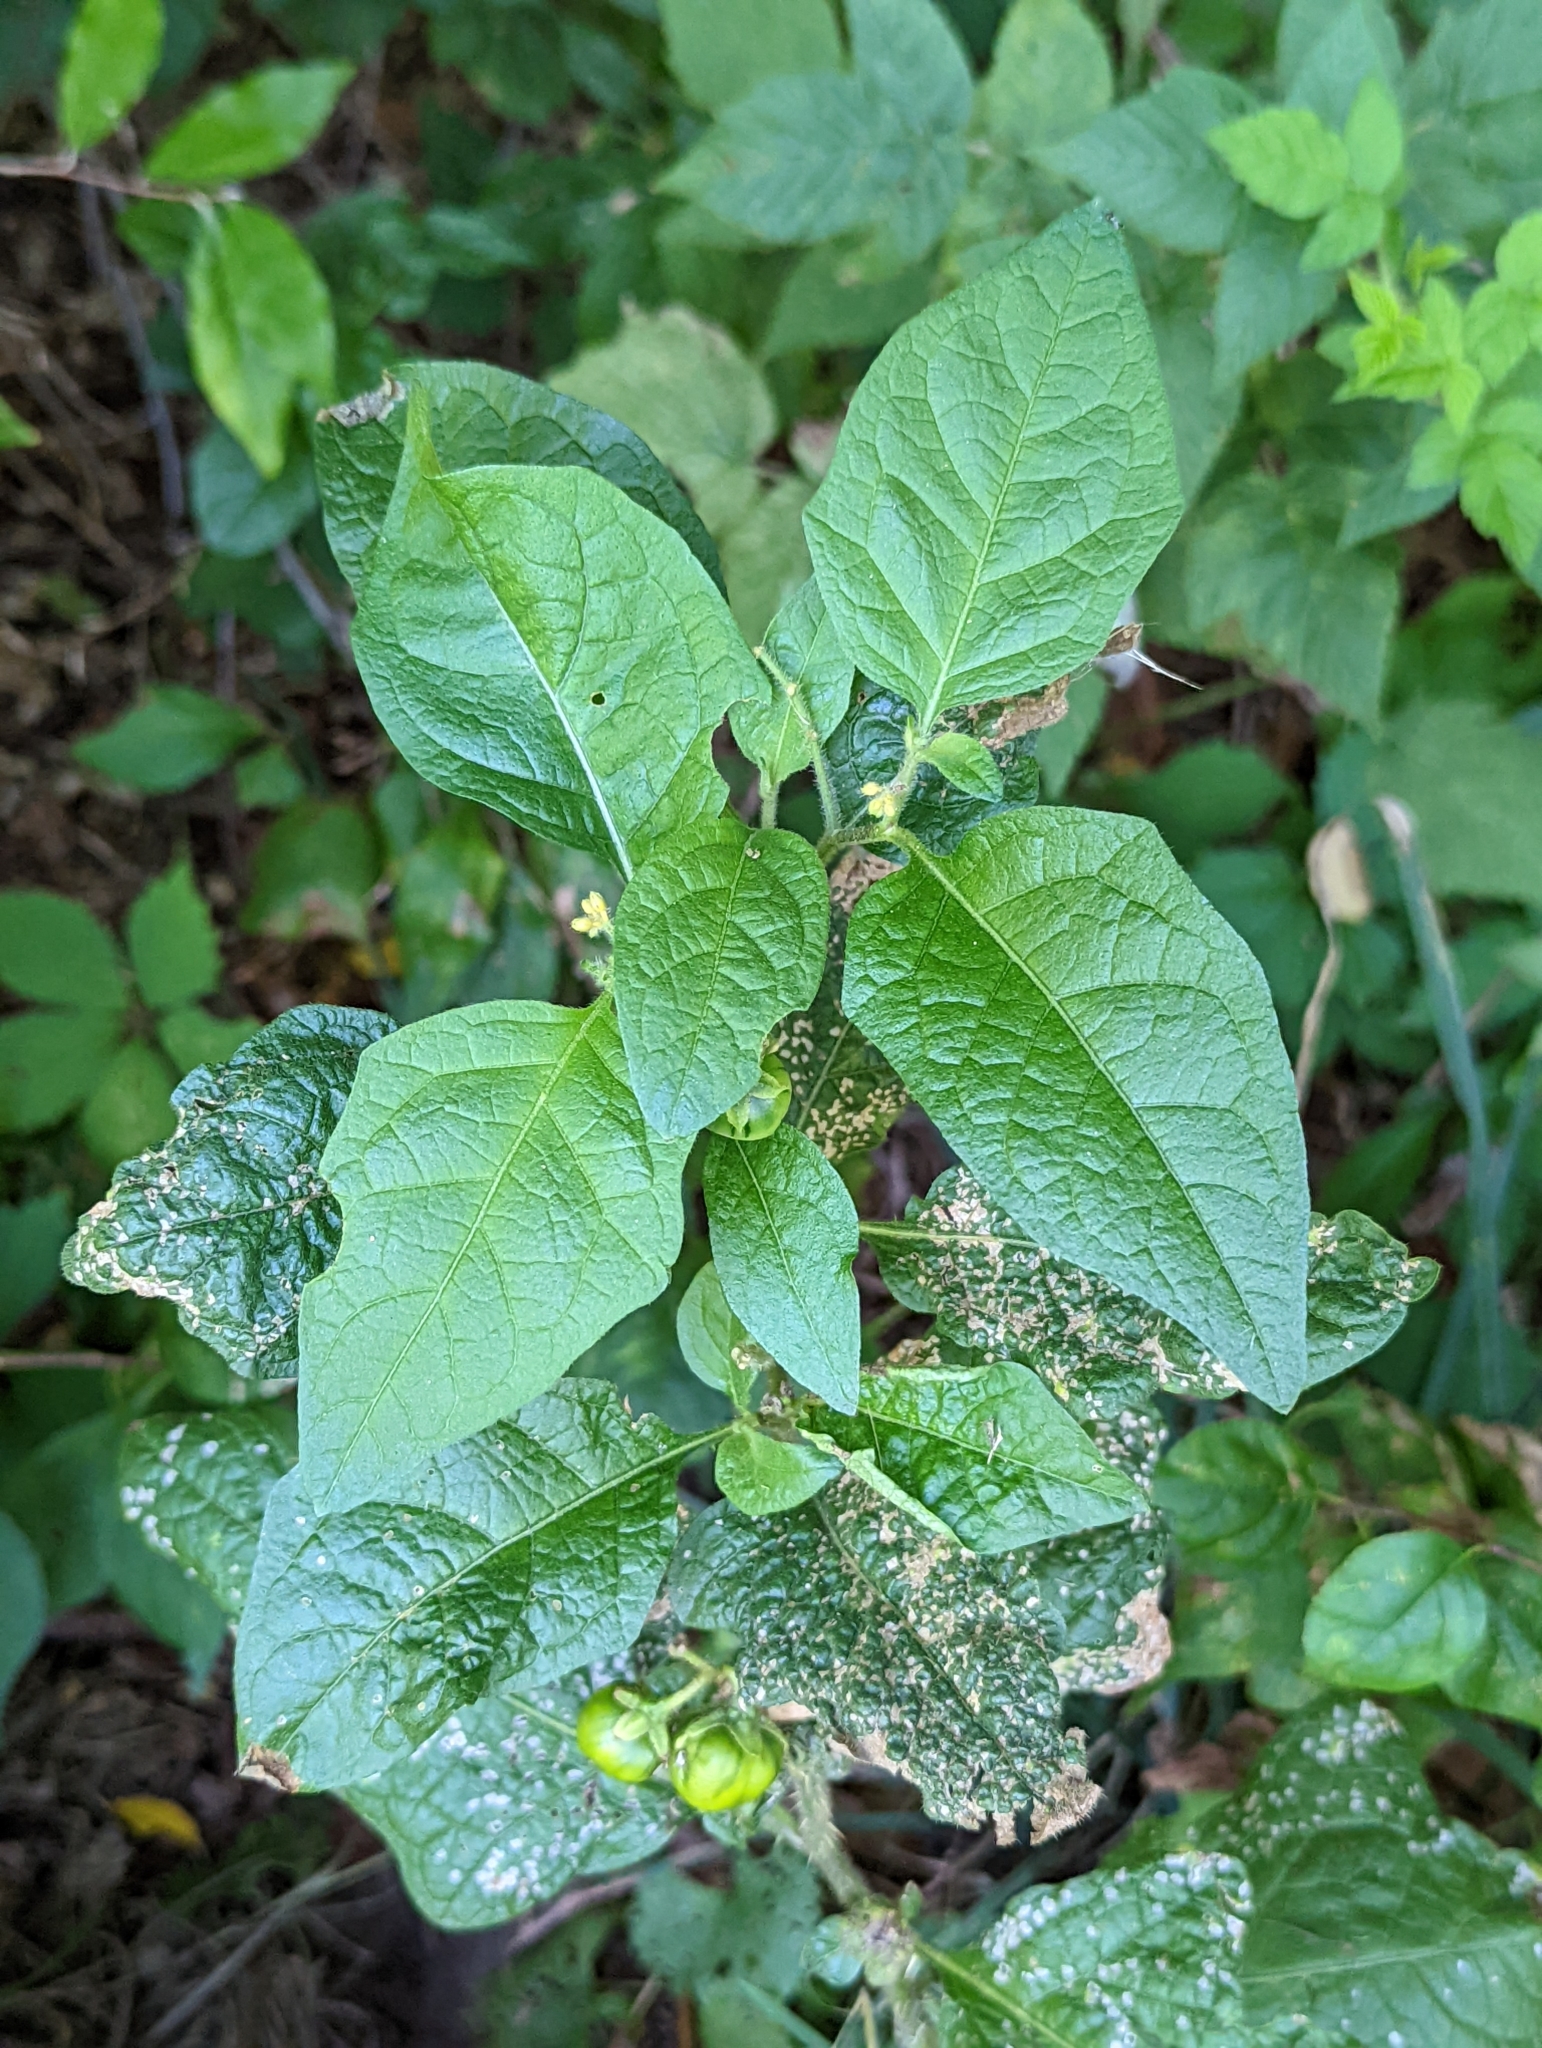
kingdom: Plantae
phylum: Tracheophyta
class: Magnoliopsida
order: Solanales
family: Solanaceae
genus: Solanum
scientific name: Solanum carolinense
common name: Horse-nettle
